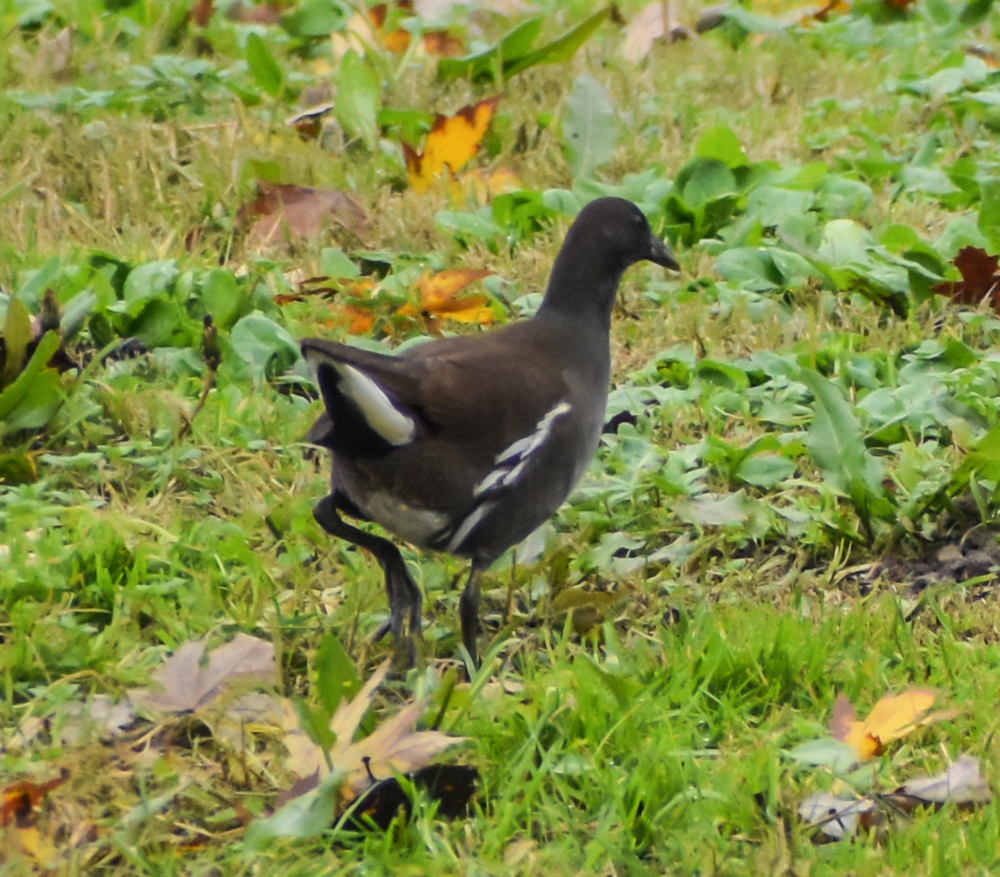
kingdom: Animalia
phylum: Chordata
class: Aves
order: Gruiformes
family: Rallidae
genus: Gallinula
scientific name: Gallinula chloropus
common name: Common moorhen
